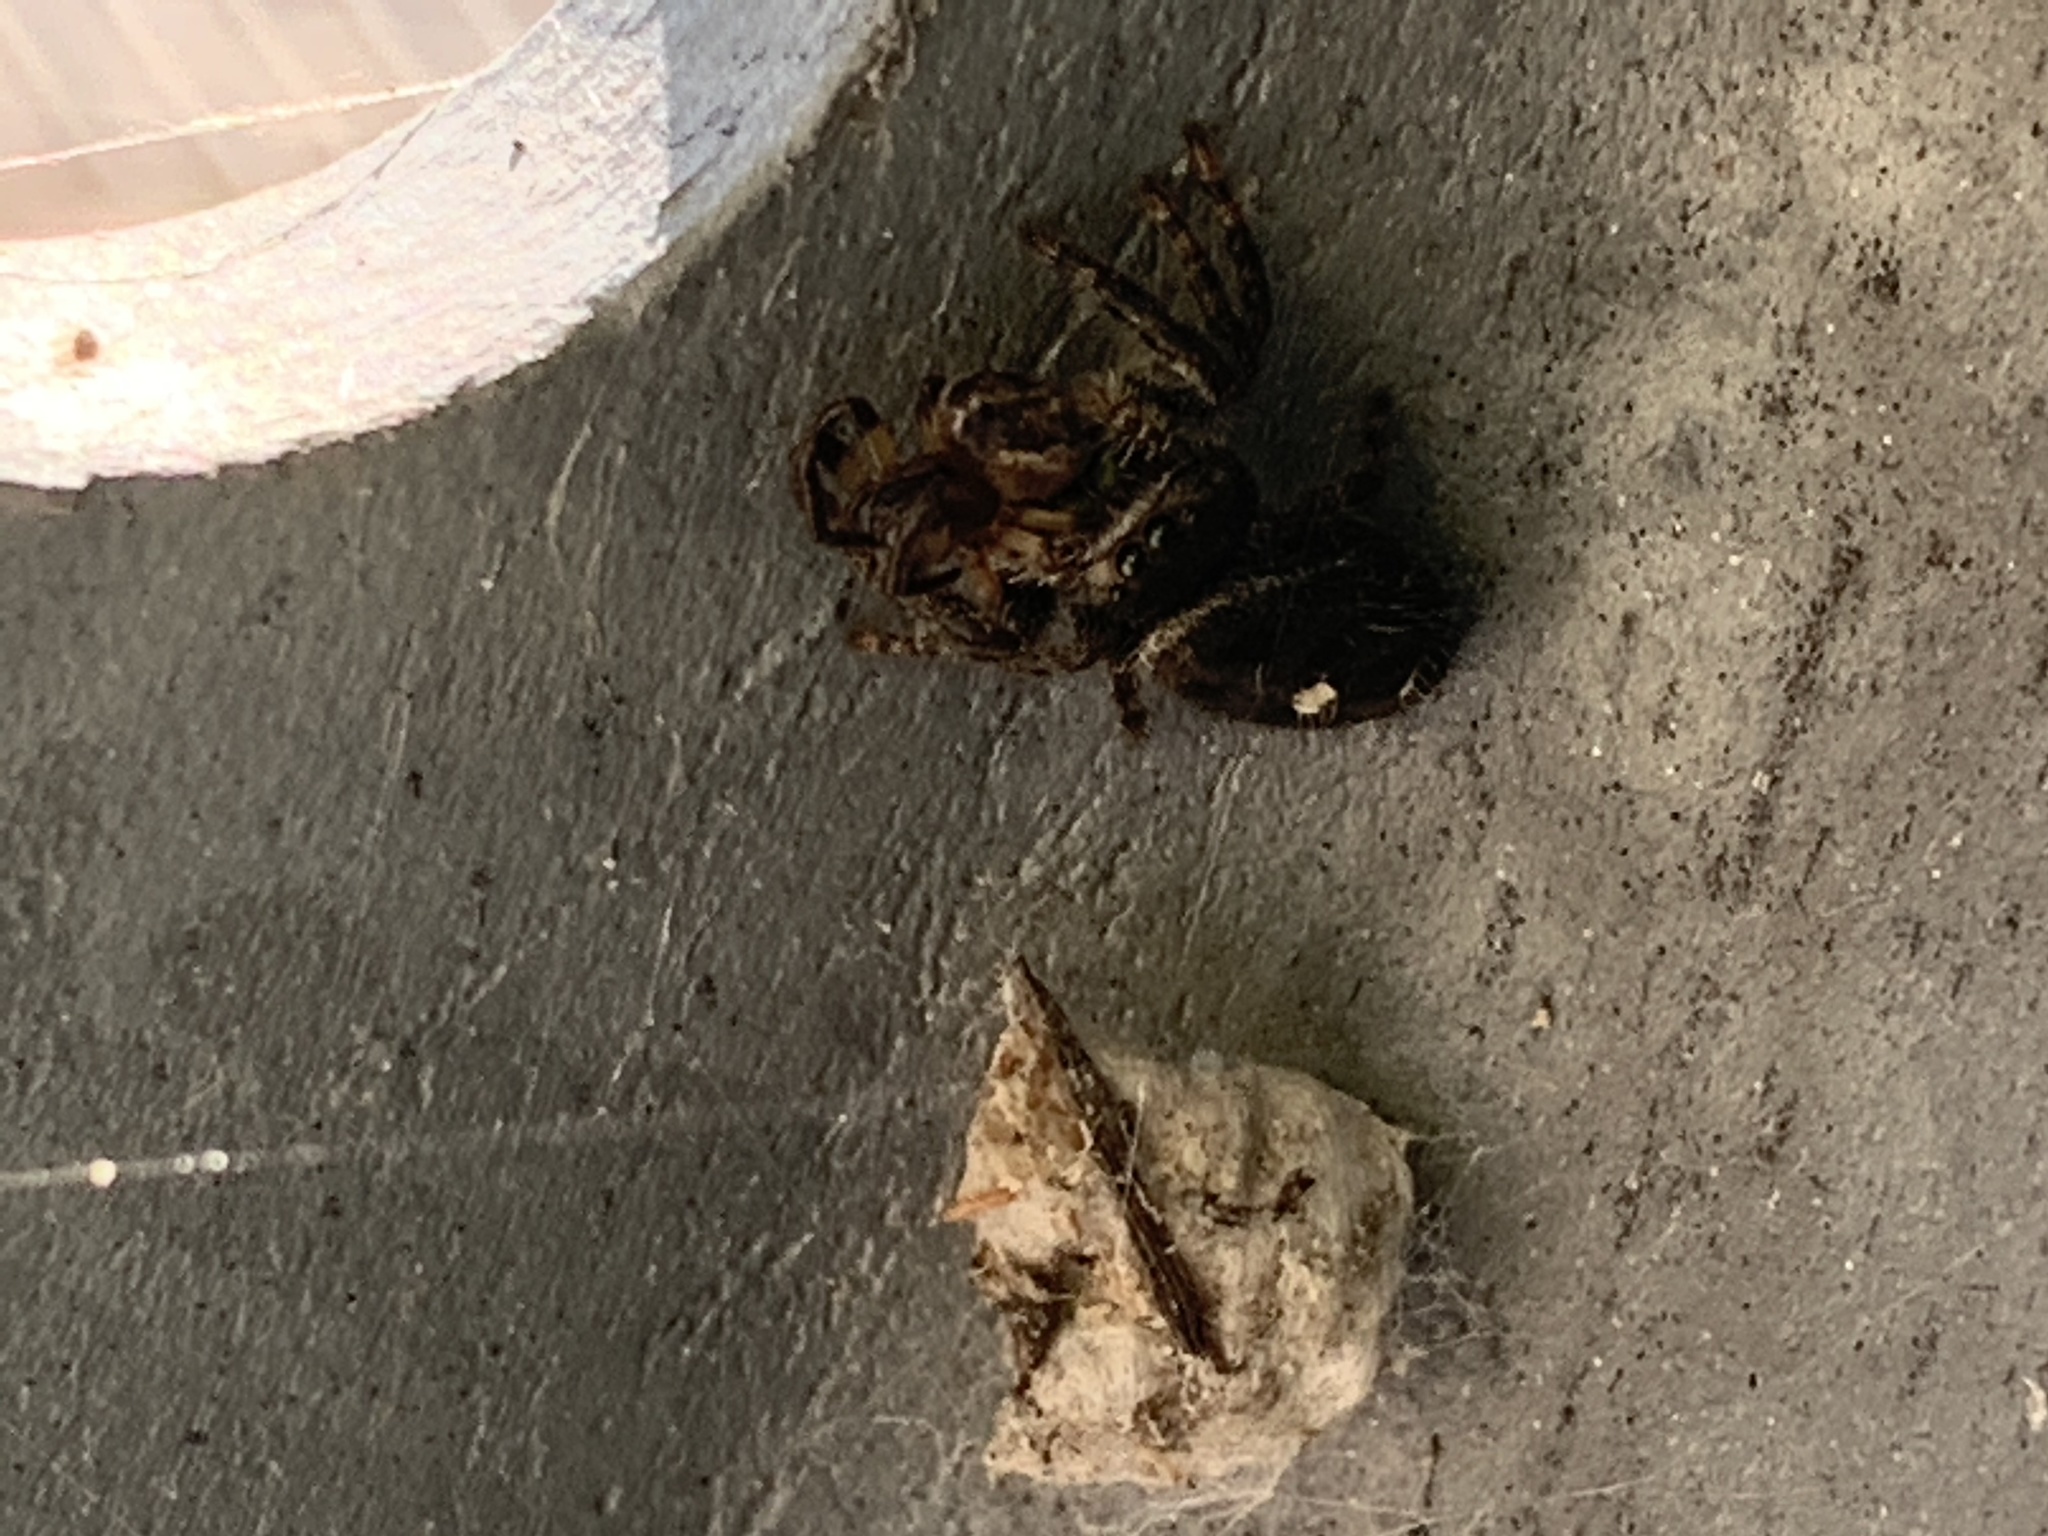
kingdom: Animalia
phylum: Arthropoda
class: Arachnida
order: Araneae
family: Salticidae
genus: Phidippus
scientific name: Phidippus audax
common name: Bold jumper
